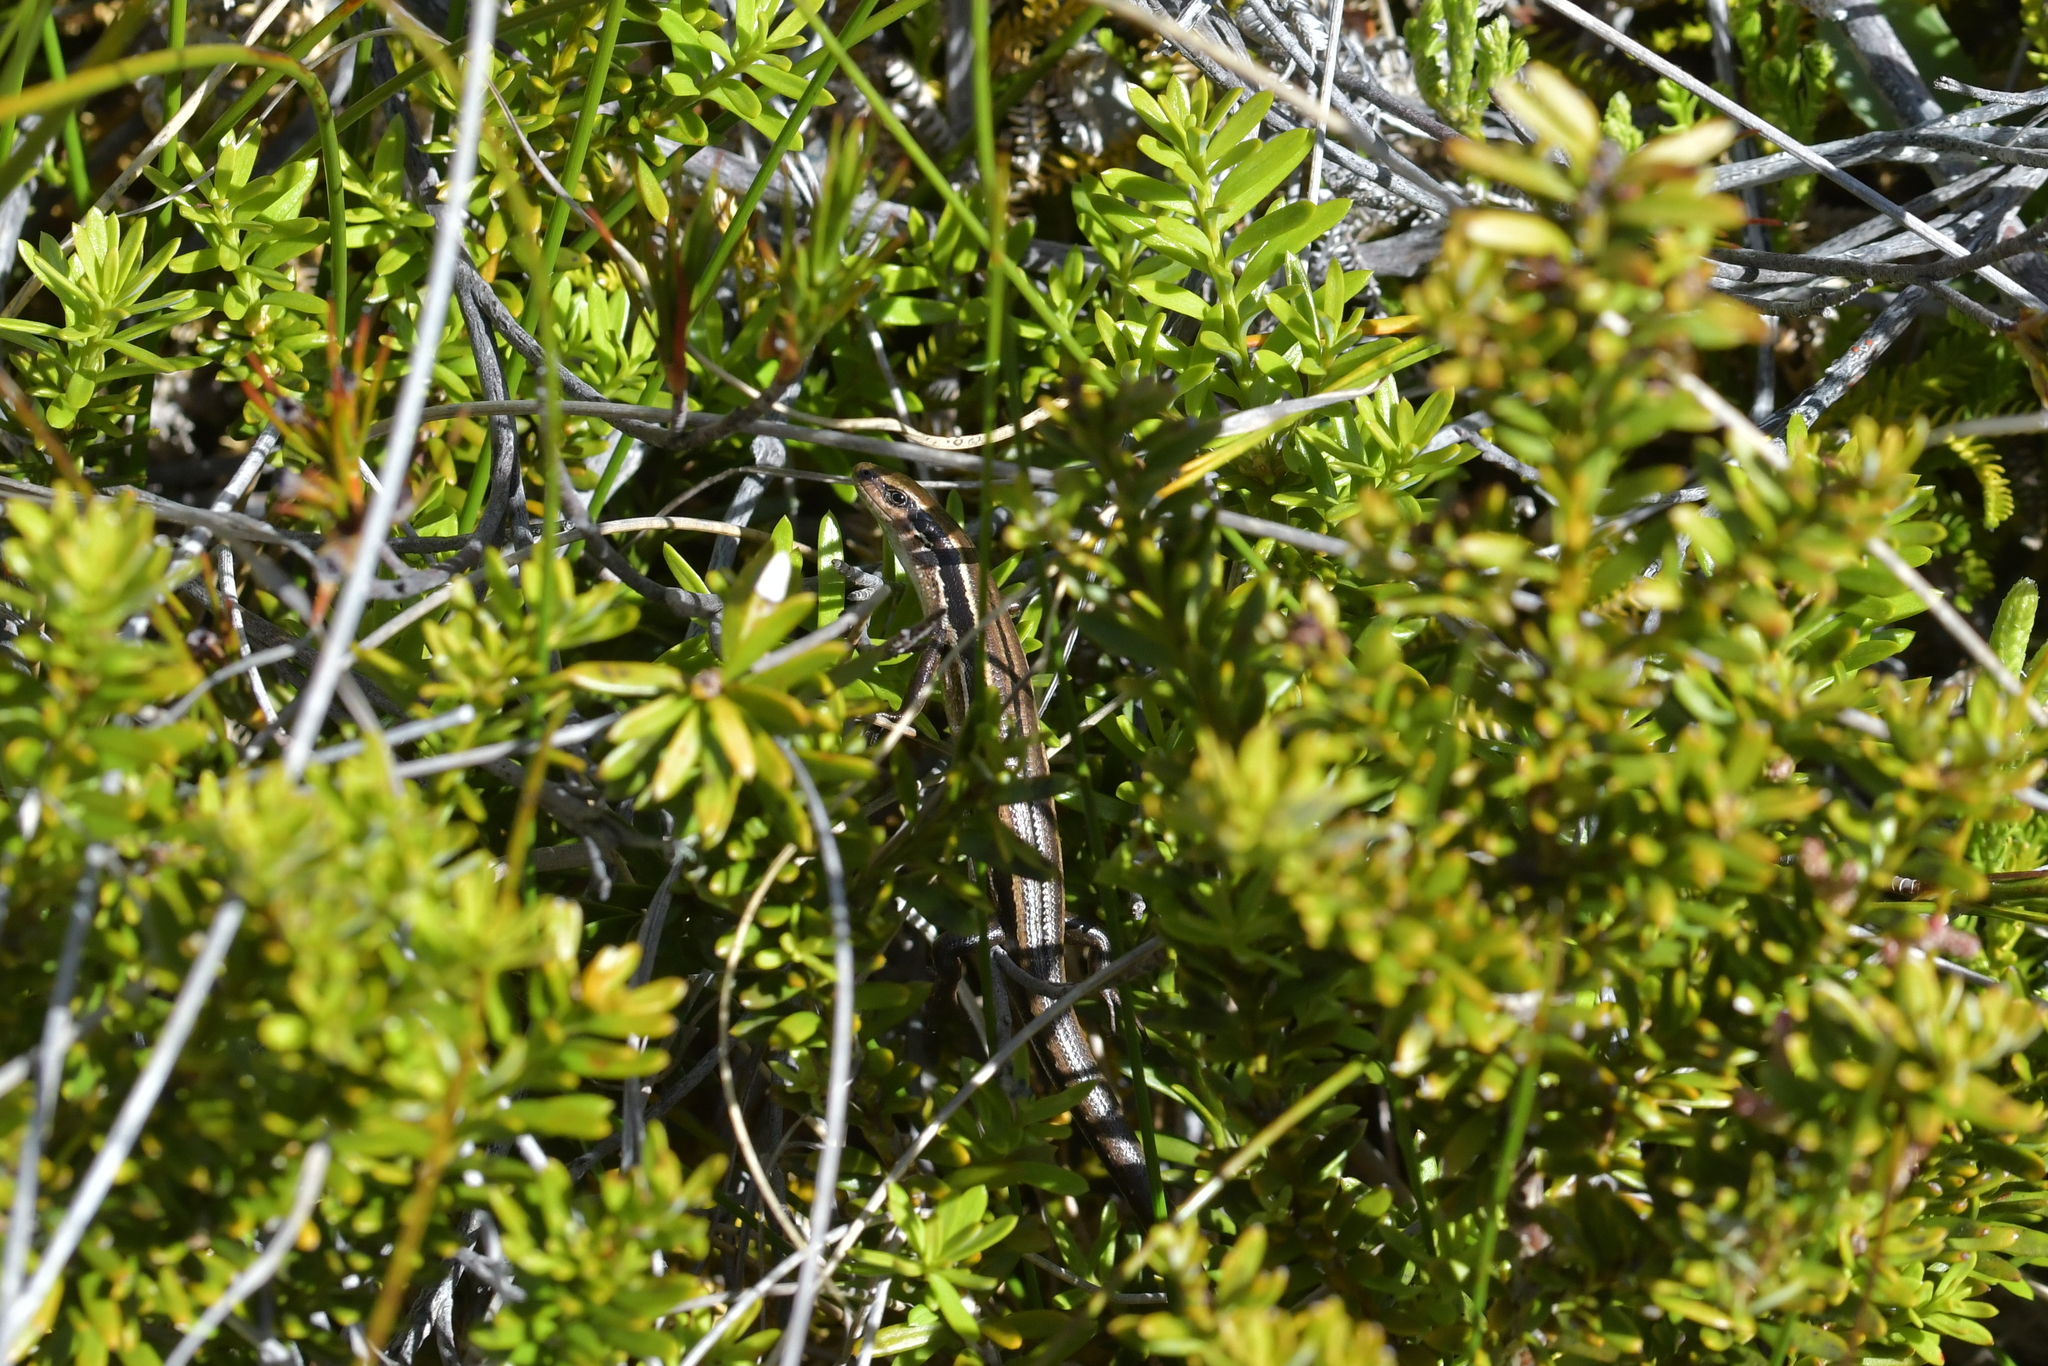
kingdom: Animalia
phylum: Chordata
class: Squamata
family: Scincidae
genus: Oligosoma
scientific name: Oligosoma repens
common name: Eyres skink
